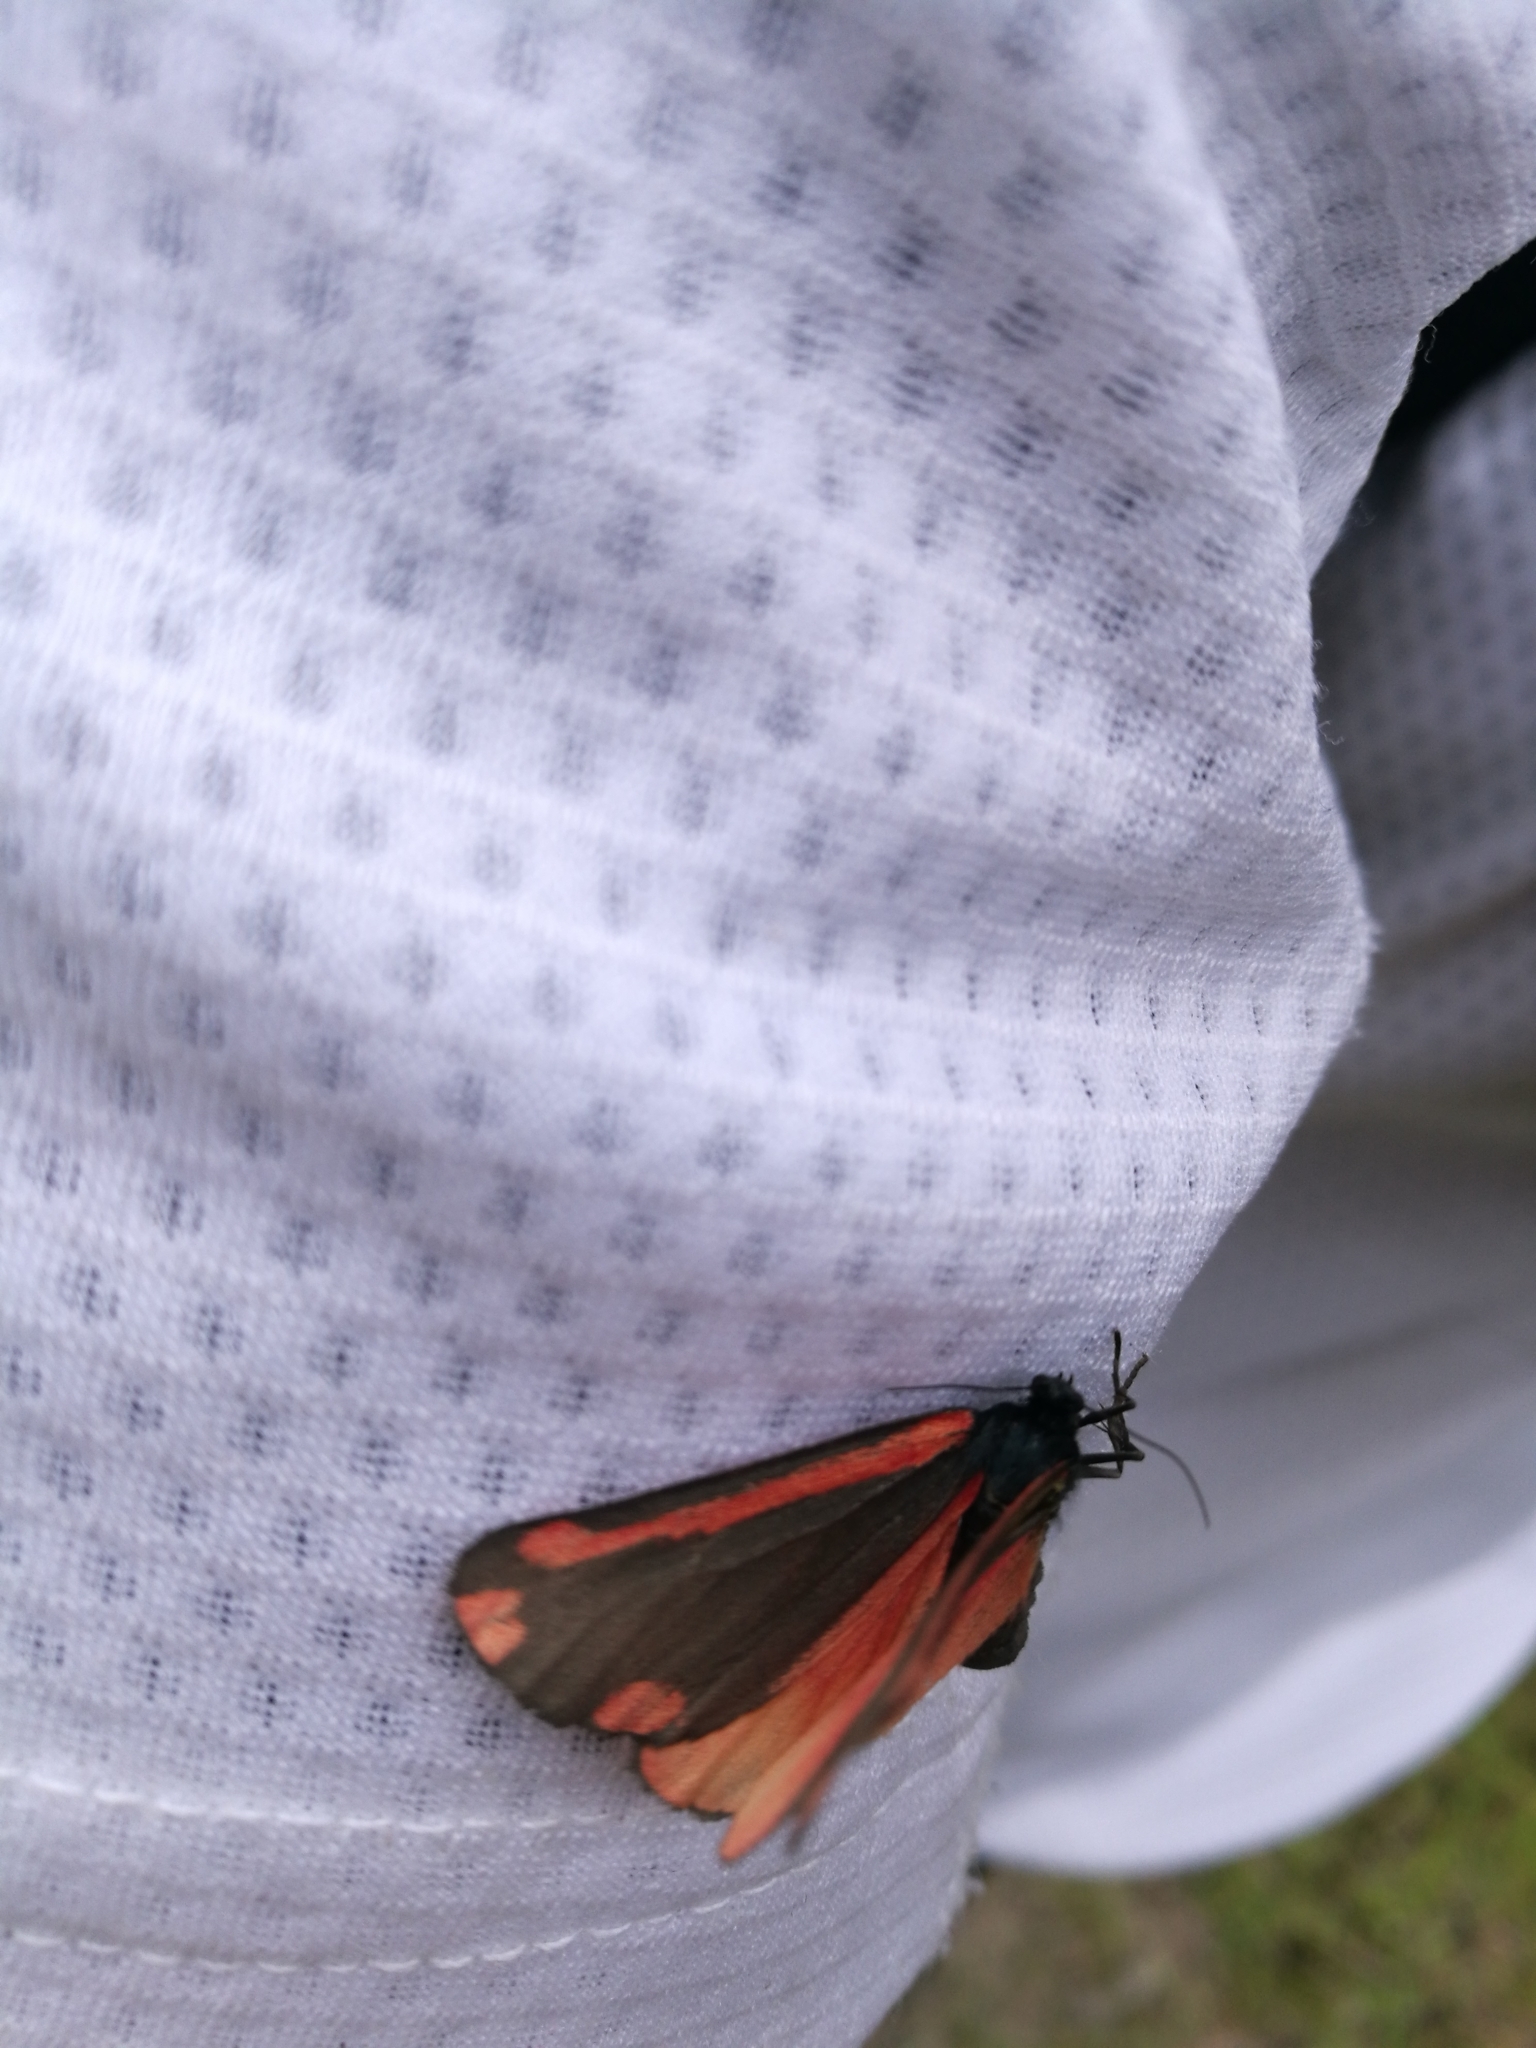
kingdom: Animalia
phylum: Arthropoda
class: Insecta
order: Lepidoptera
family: Erebidae
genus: Tyria
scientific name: Tyria jacobaeae
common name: Cinnabar
